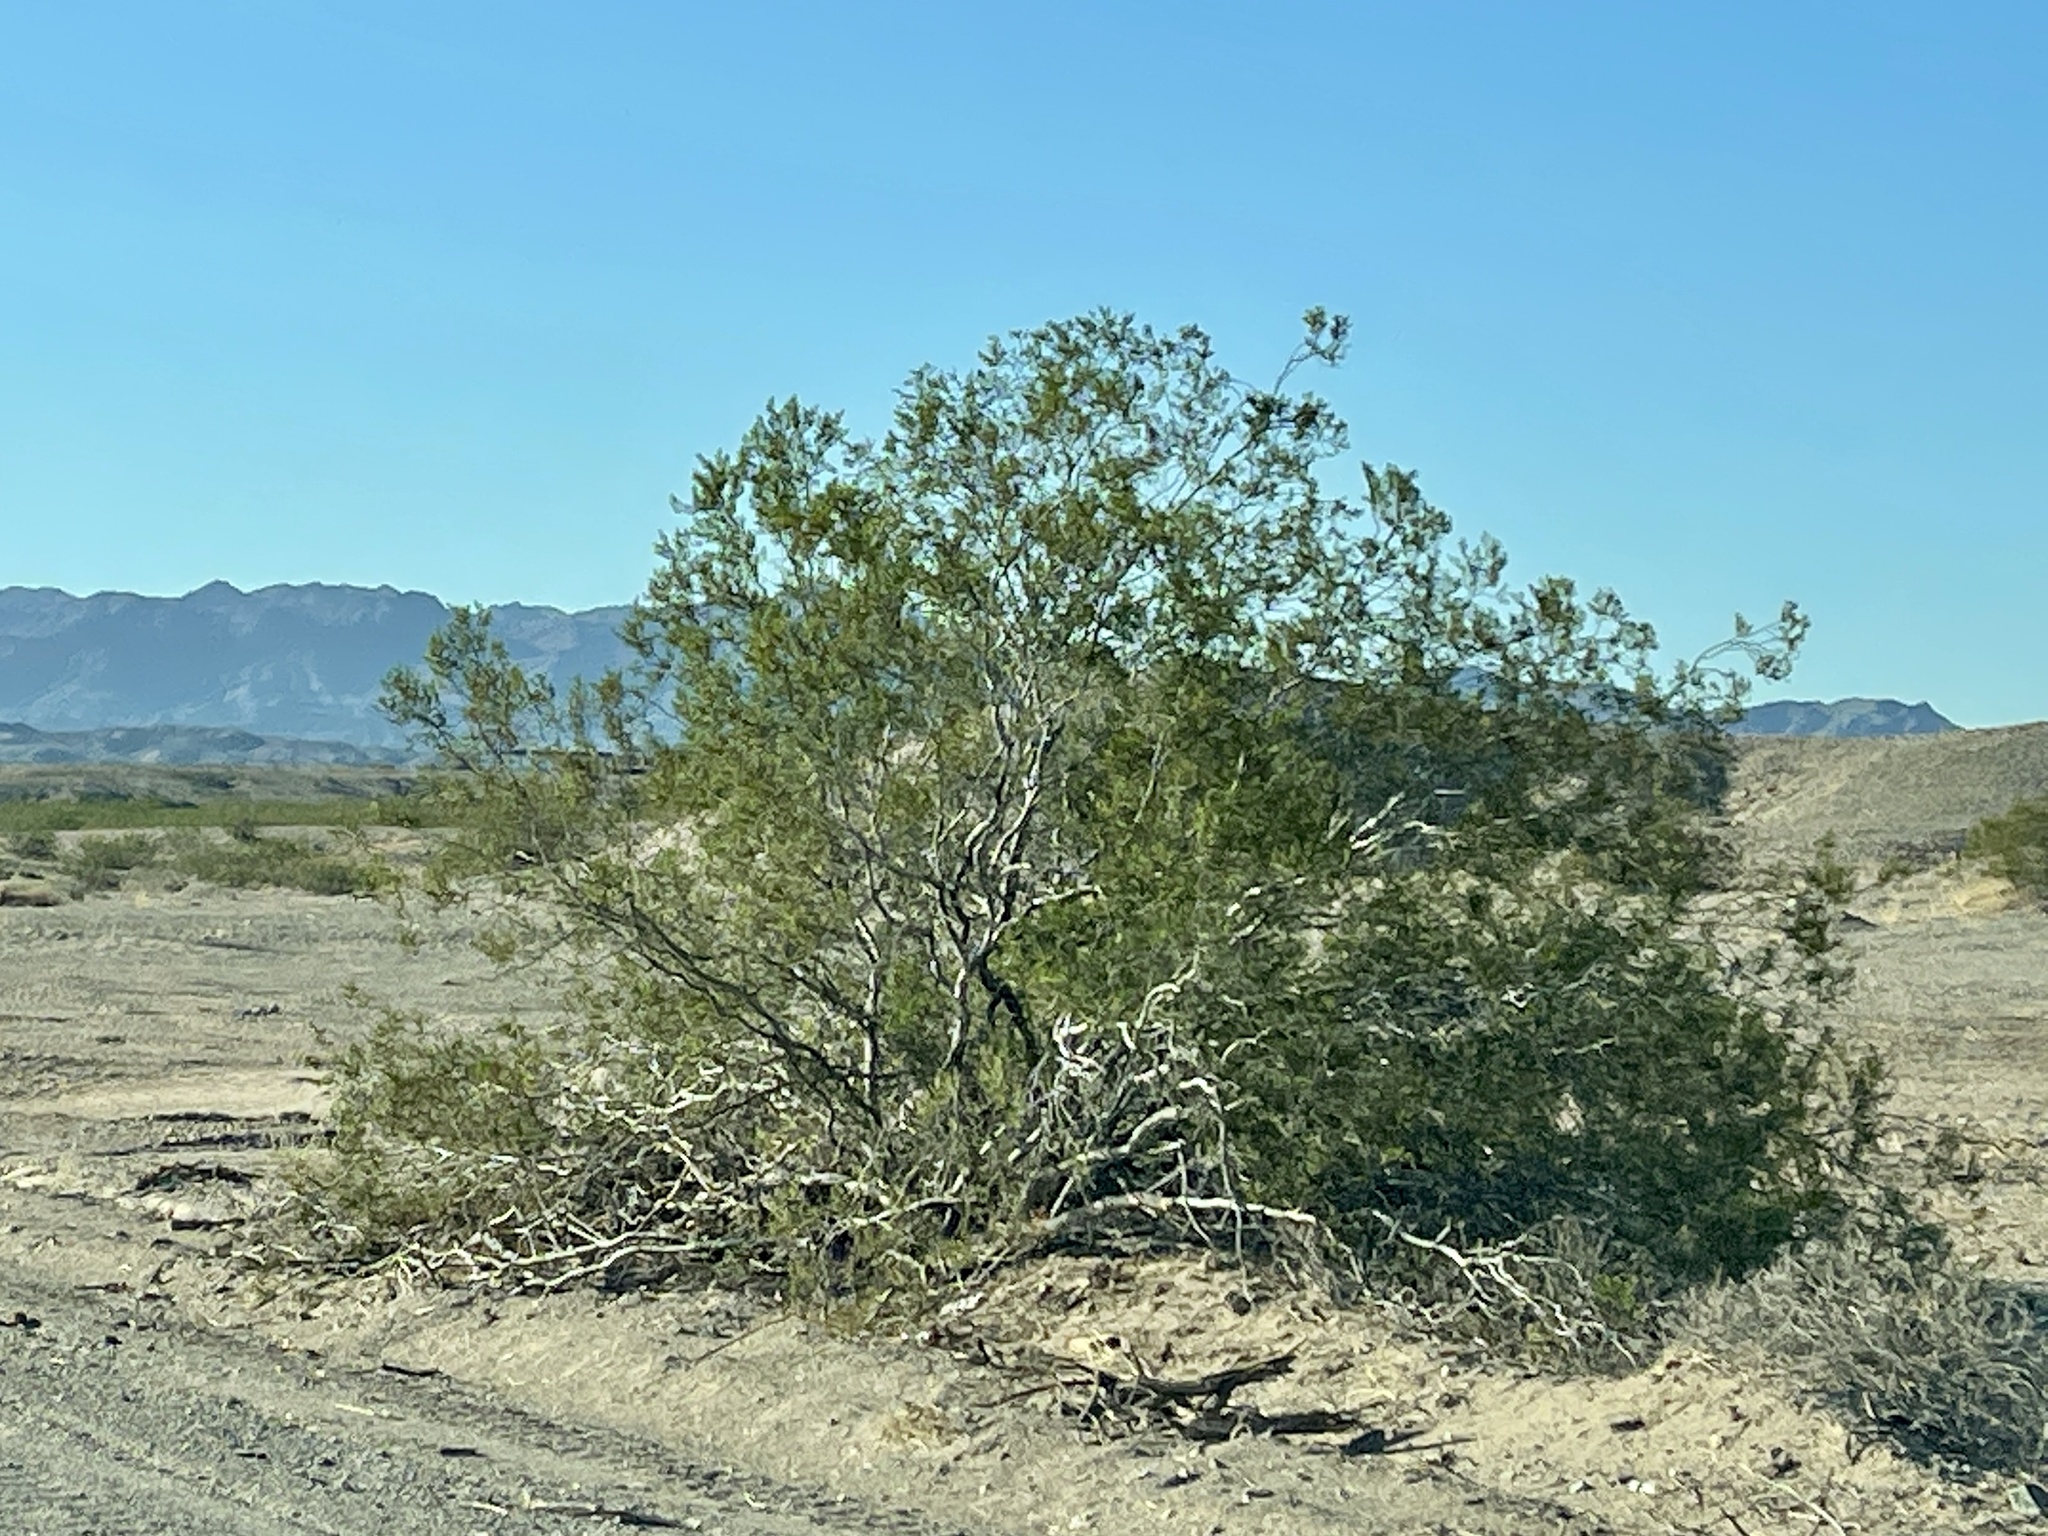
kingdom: Plantae
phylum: Tracheophyta
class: Magnoliopsida
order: Zygophyllales
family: Zygophyllaceae
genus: Larrea
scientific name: Larrea tridentata
